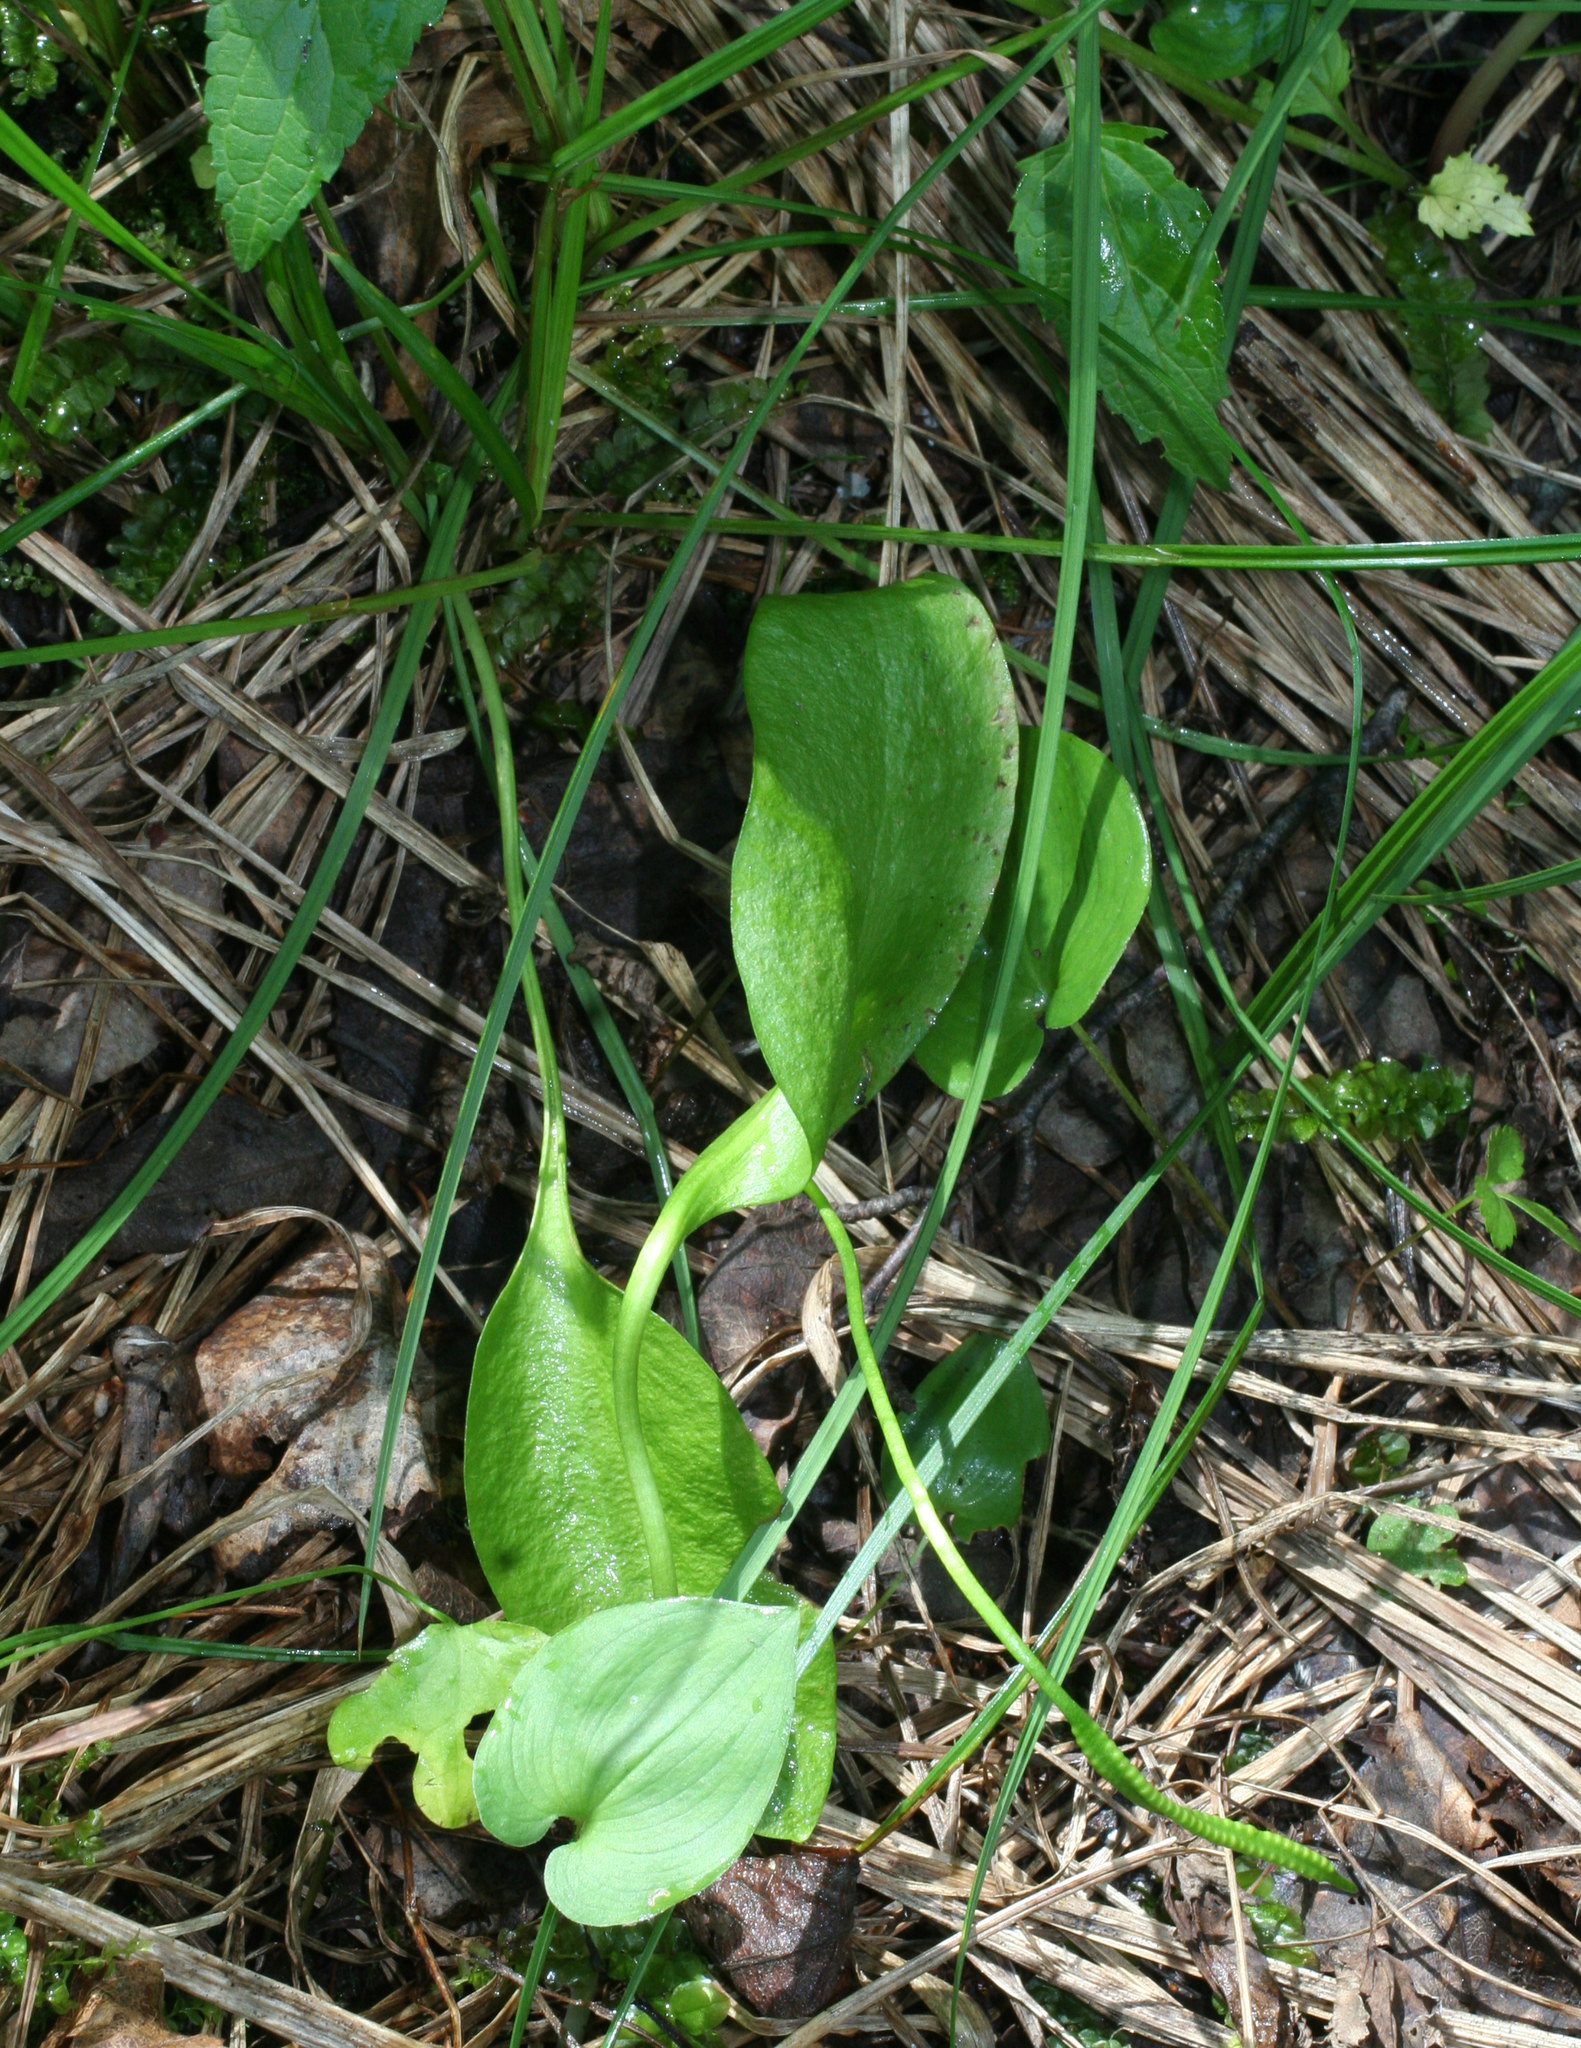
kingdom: Plantae
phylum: Tracheophyta
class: Polypodiopsida
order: Ophioglossales
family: Ophioglossaceae
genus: Ophioglossum
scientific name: Ophioglossum vulgatum
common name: Adder's-tongue
